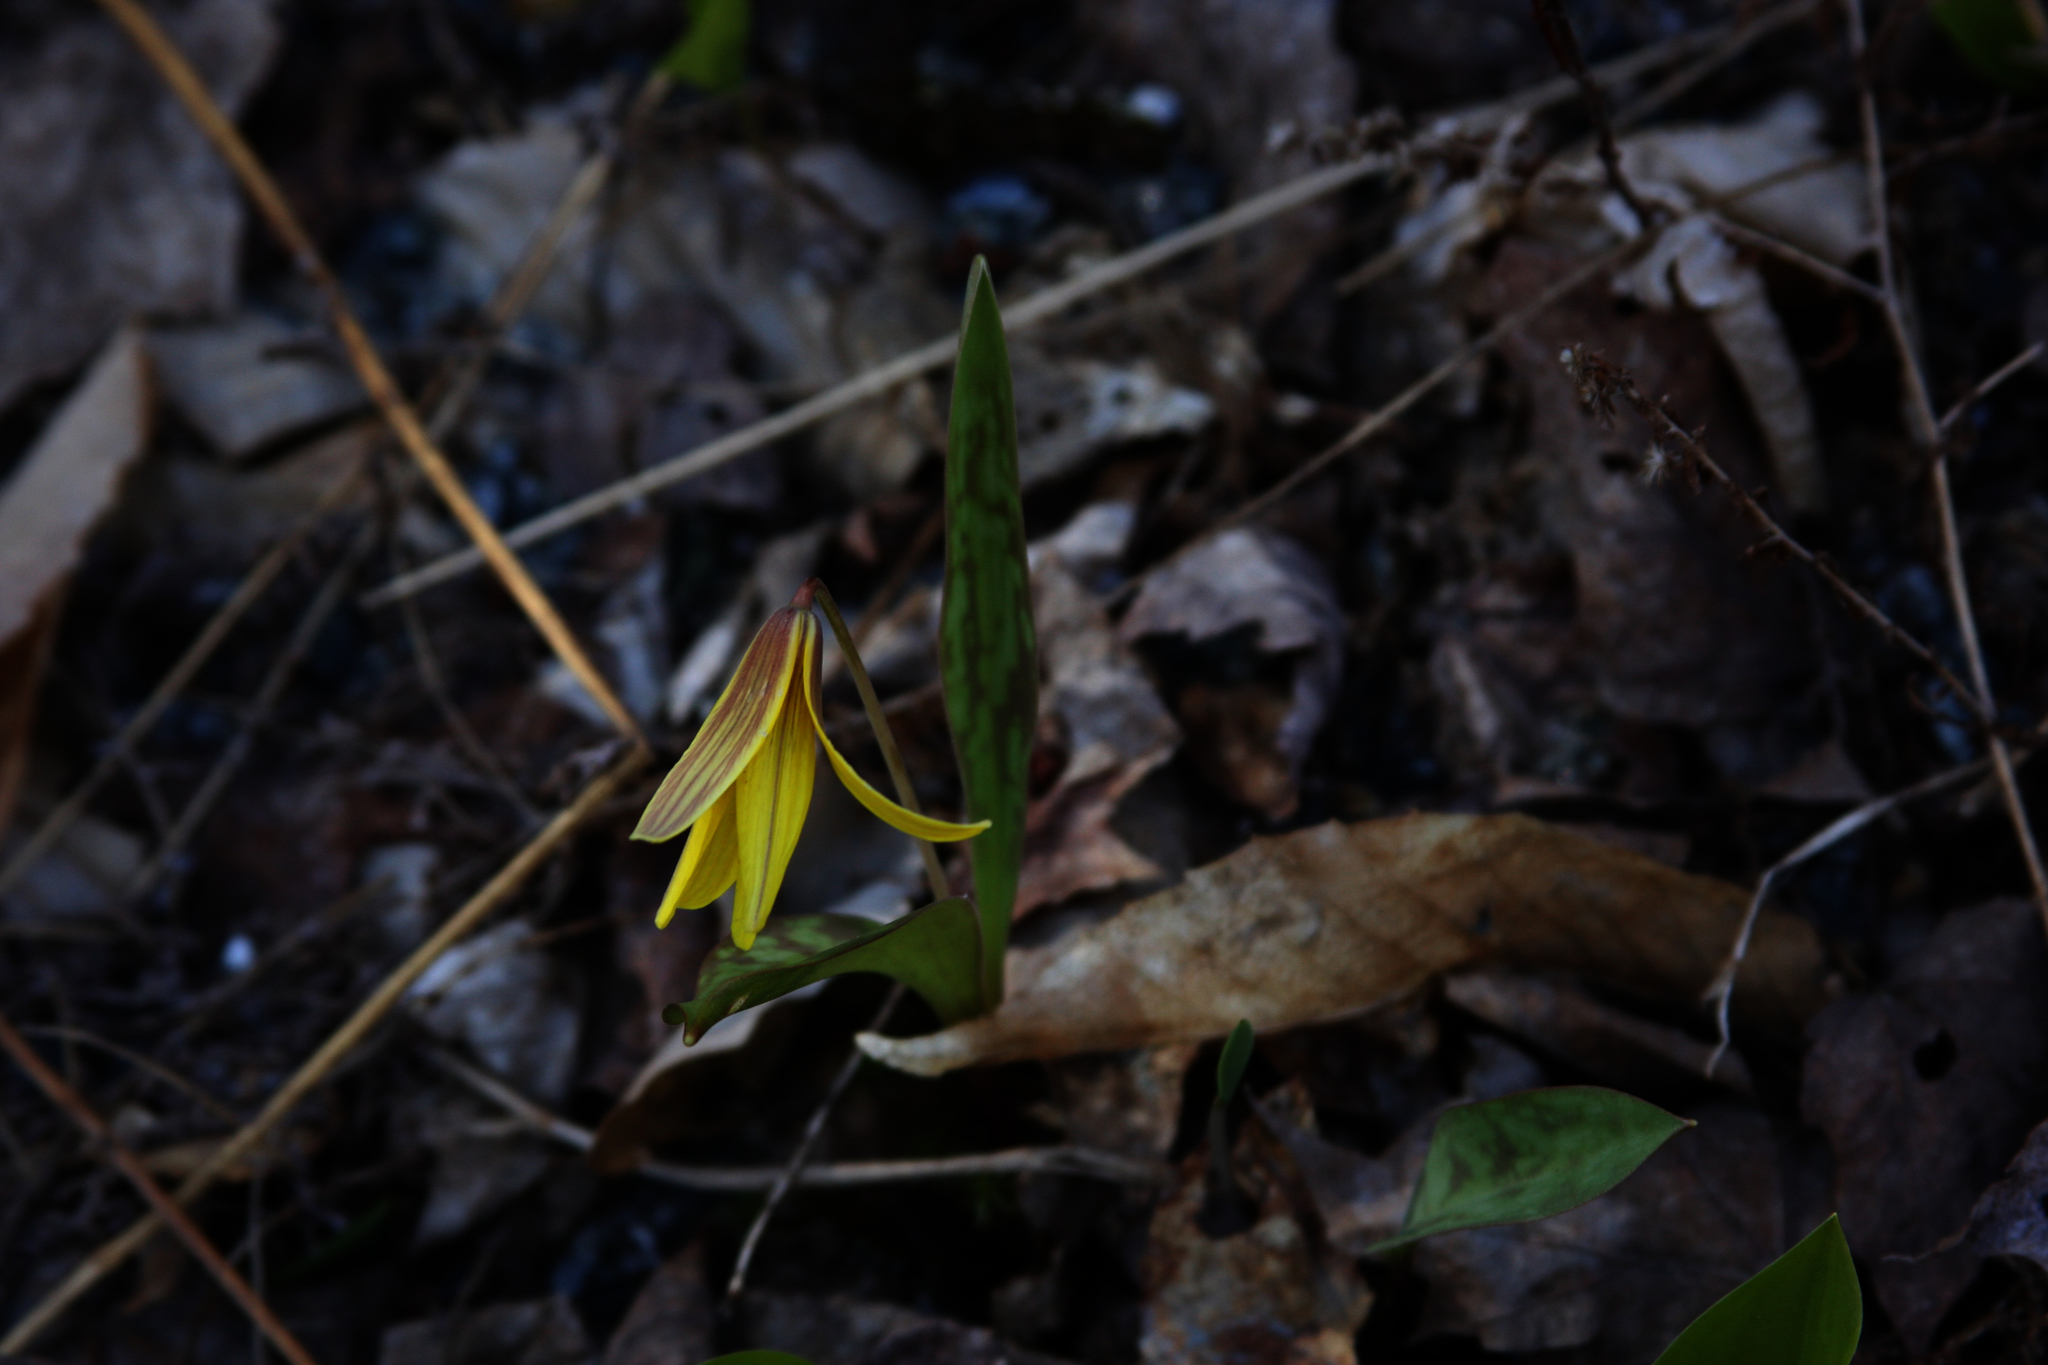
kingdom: Plantae
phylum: Tracheophyta
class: Liliopsida
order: Liliales
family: Liliaceae
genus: Erythronium
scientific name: Erythronium americanum
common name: Yellow adder's-tongue
